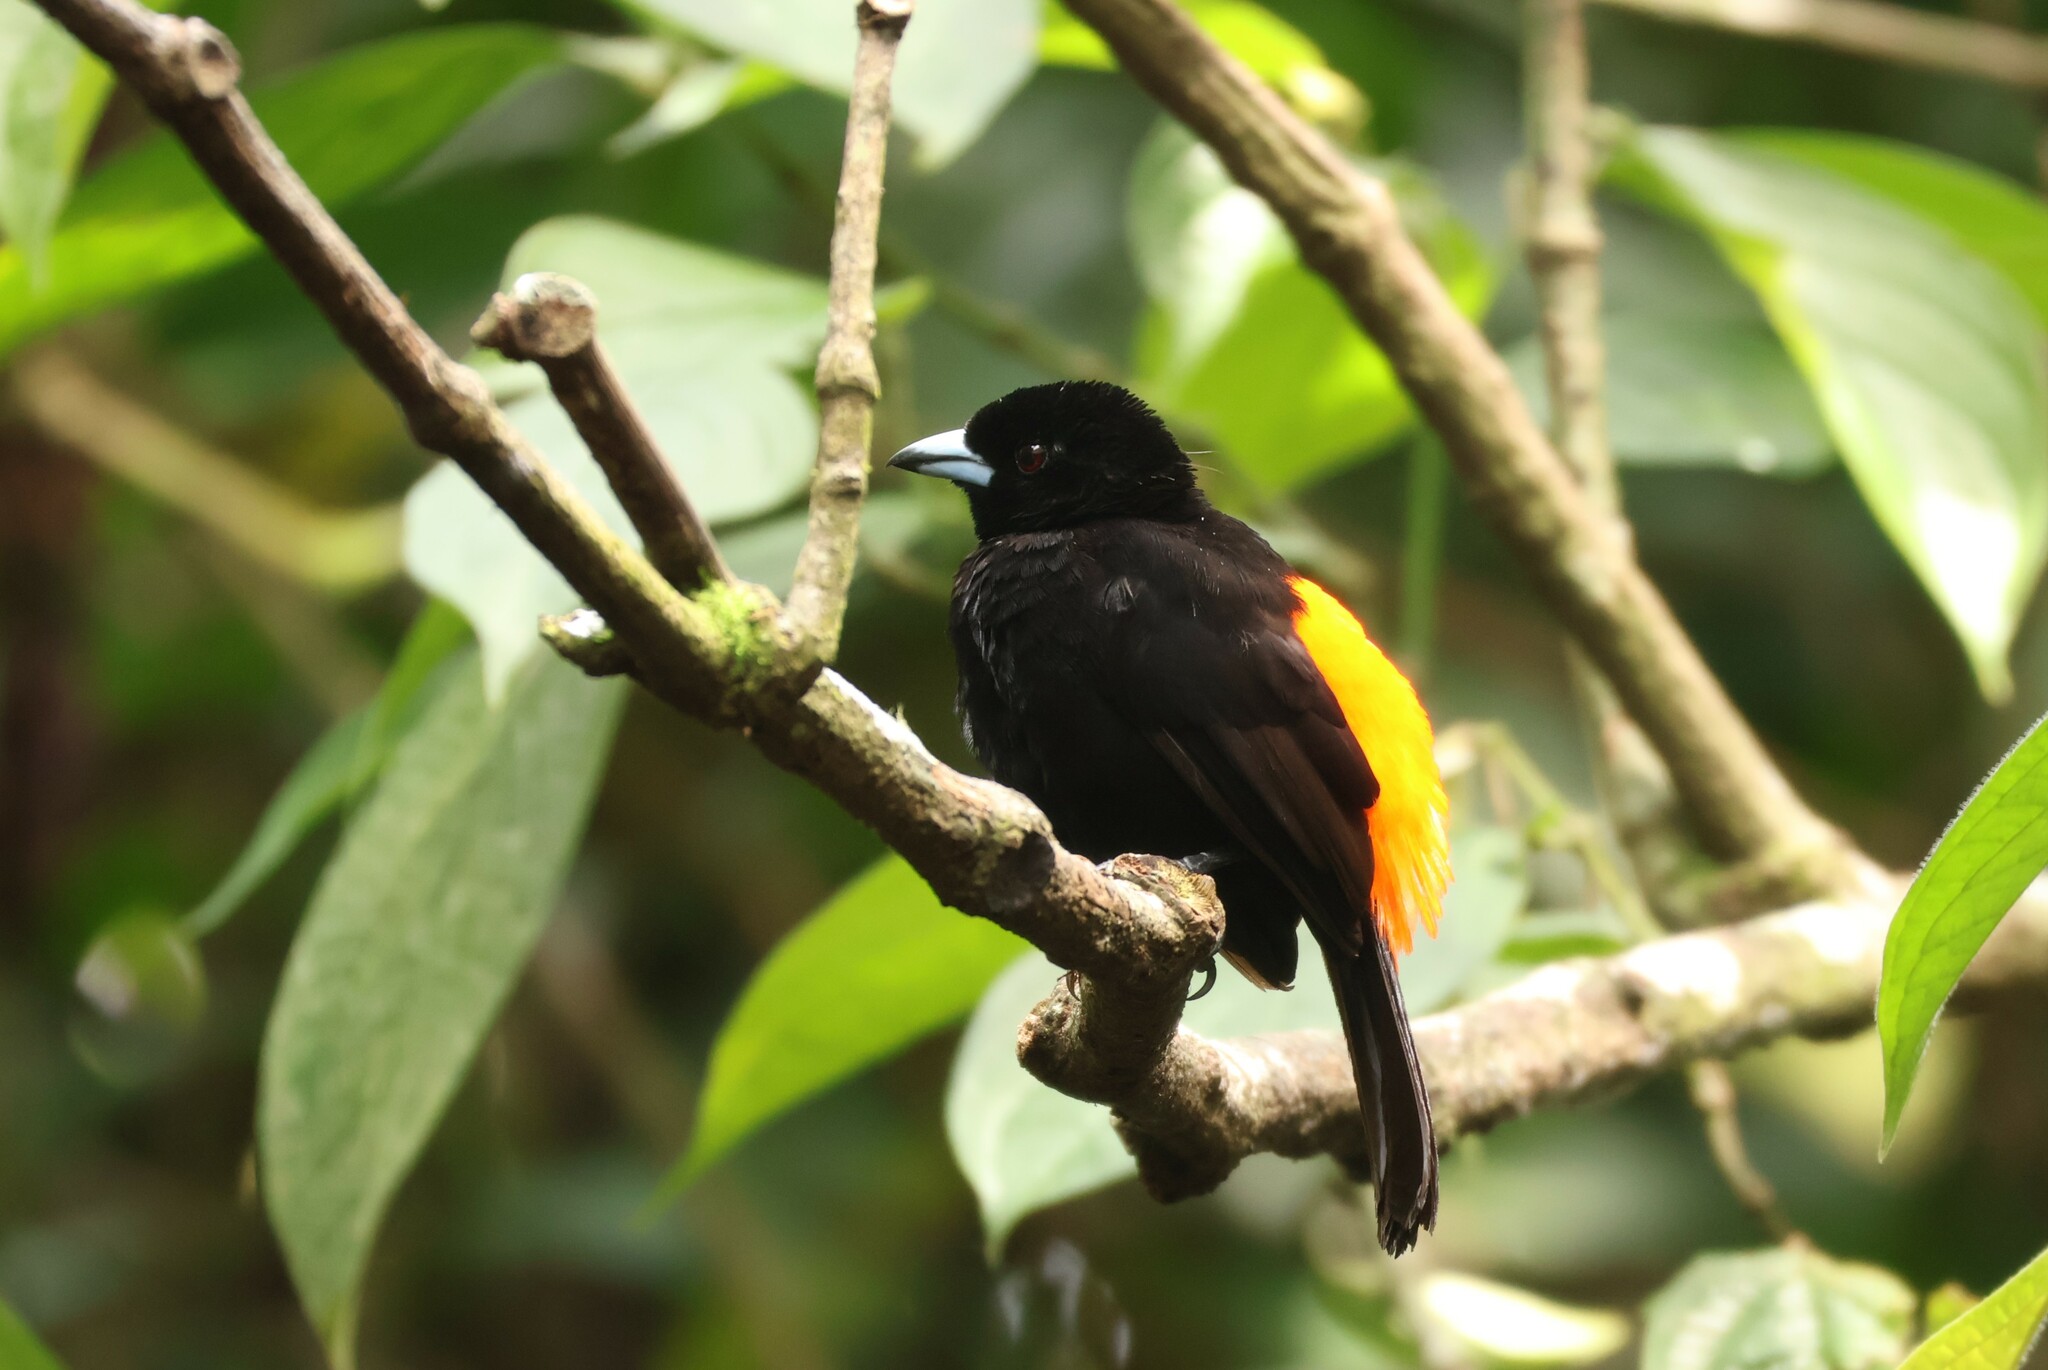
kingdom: Animalia
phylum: Chordata
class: Aves
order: Passeriformes
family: Thraupidae
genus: Ramphocelus
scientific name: Ramphocelus passerinii
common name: Passerini's tanager
